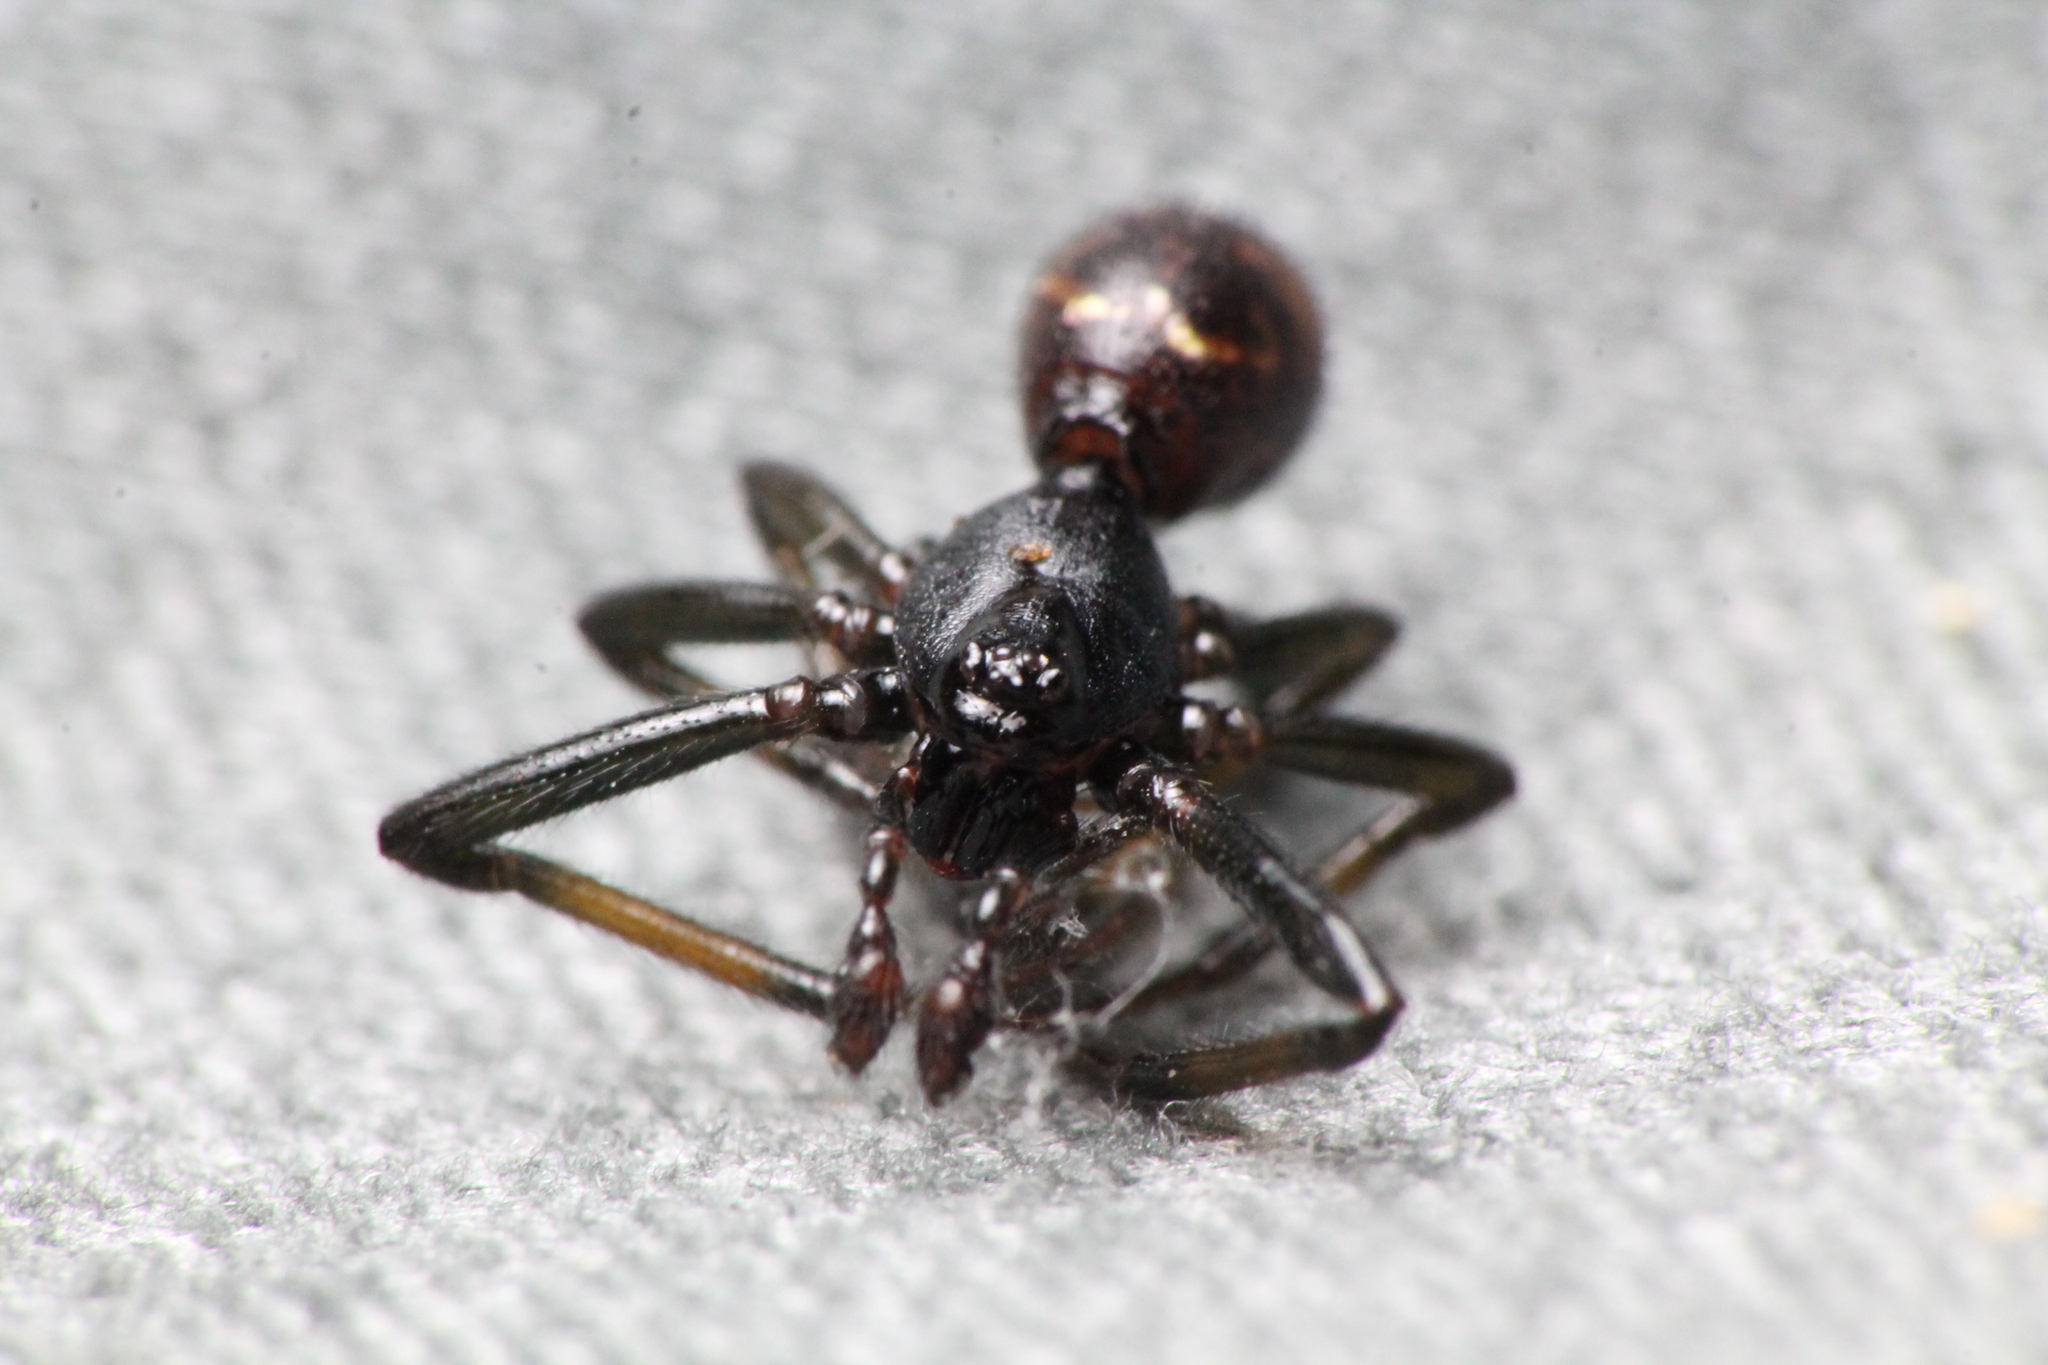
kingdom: Animalia
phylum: Arthropoda
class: Arachnida
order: Araneae
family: Theridiidae
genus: Steatoda
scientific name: Steatoda capensis
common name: Cobweb weaver
